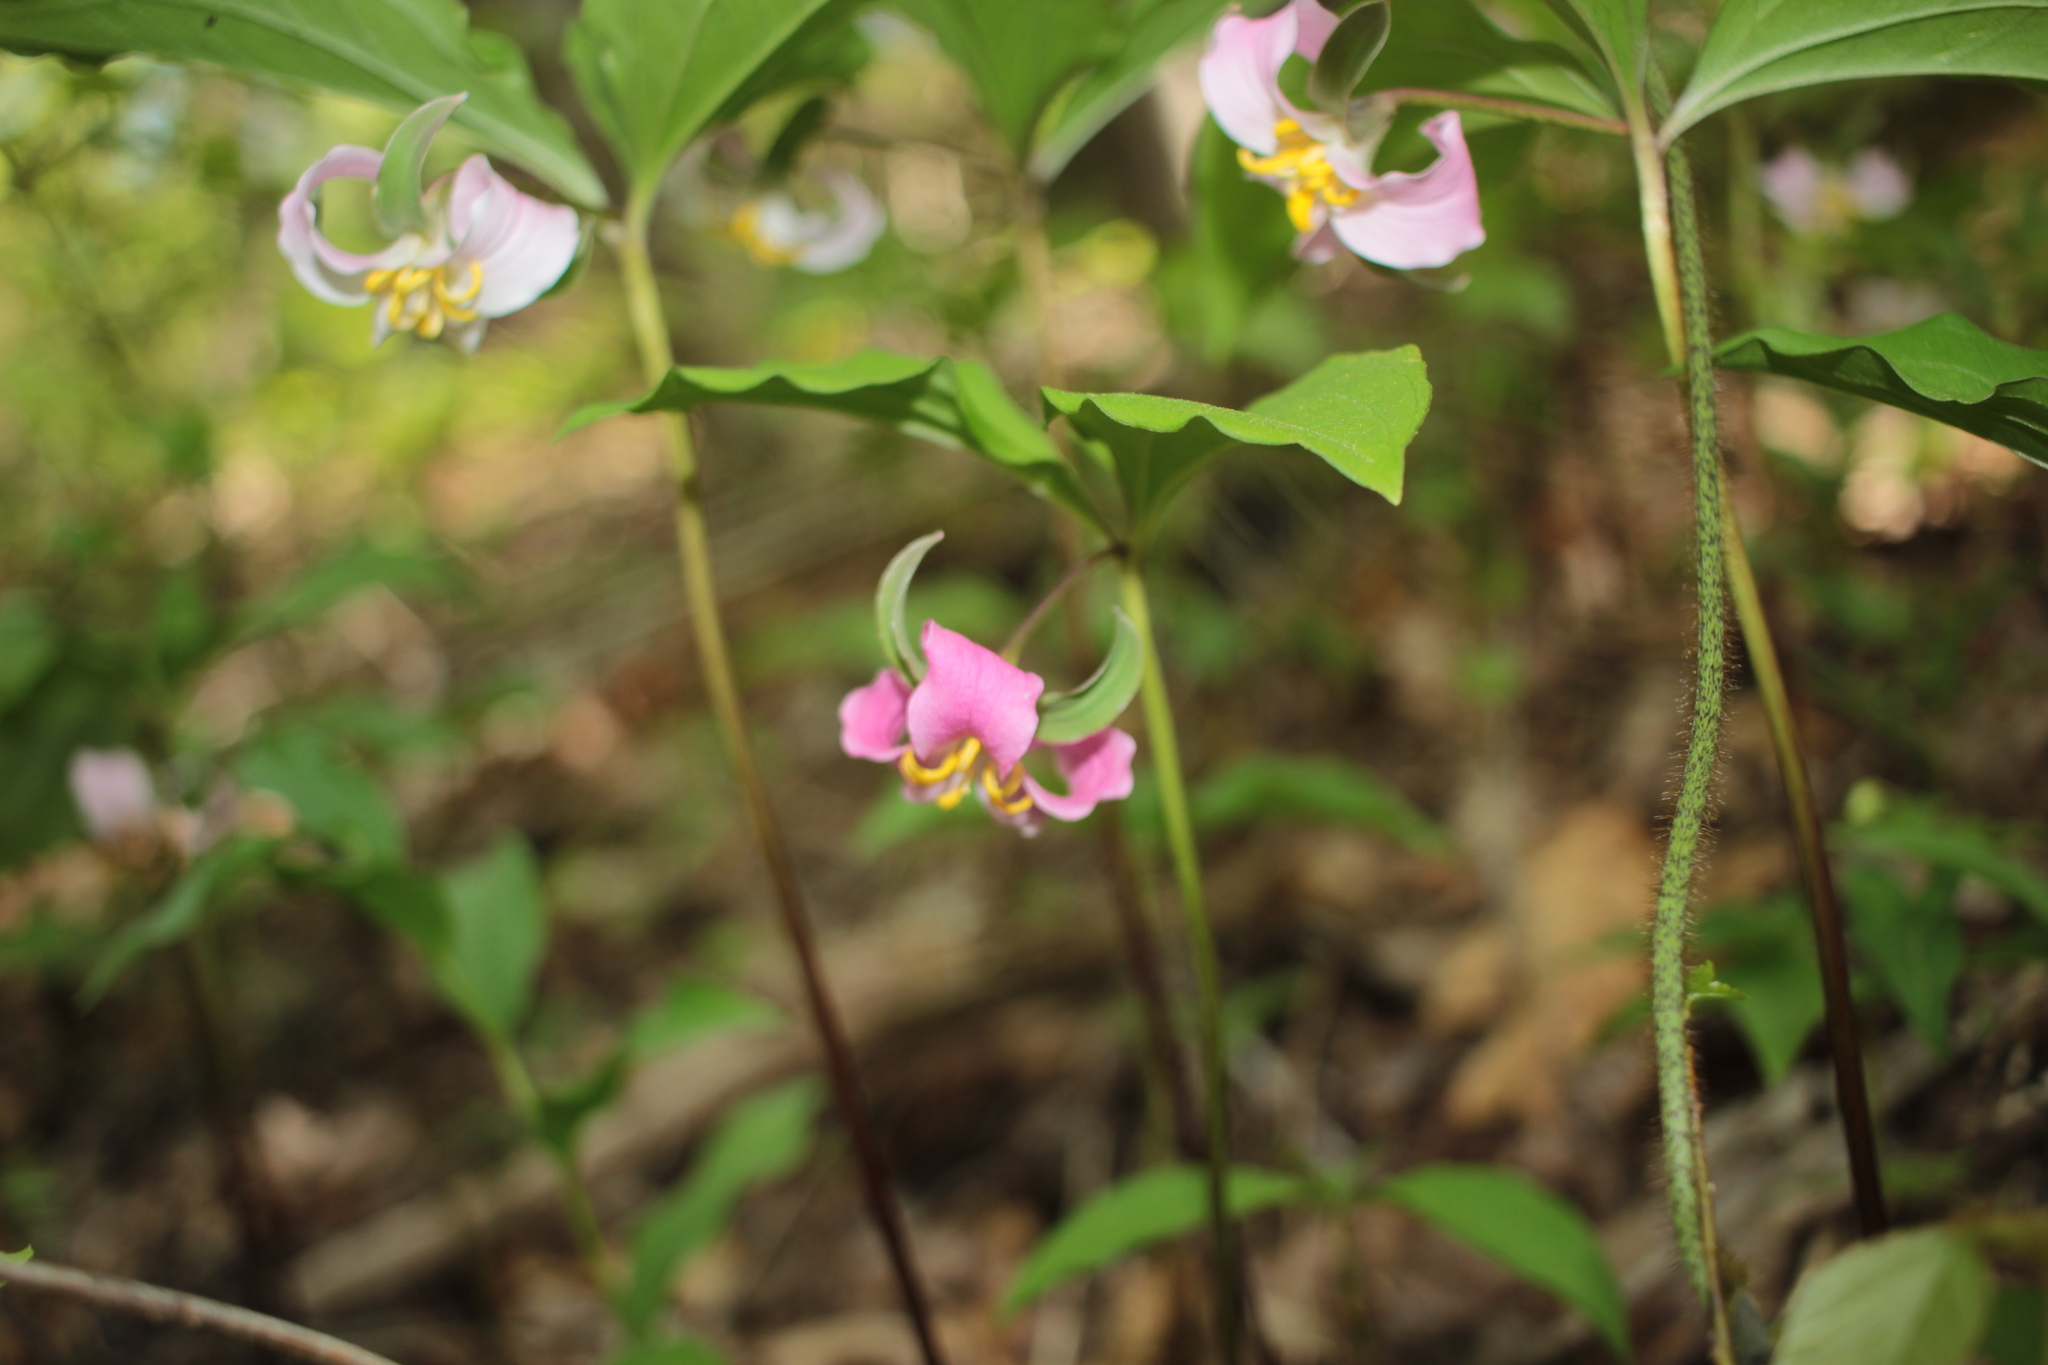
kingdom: Plantae
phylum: Tracheophyta
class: Liliopsida
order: Liliales
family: Melanthiaceae
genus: Trillium
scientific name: Trillium catesbaei
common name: Bashful trillium
